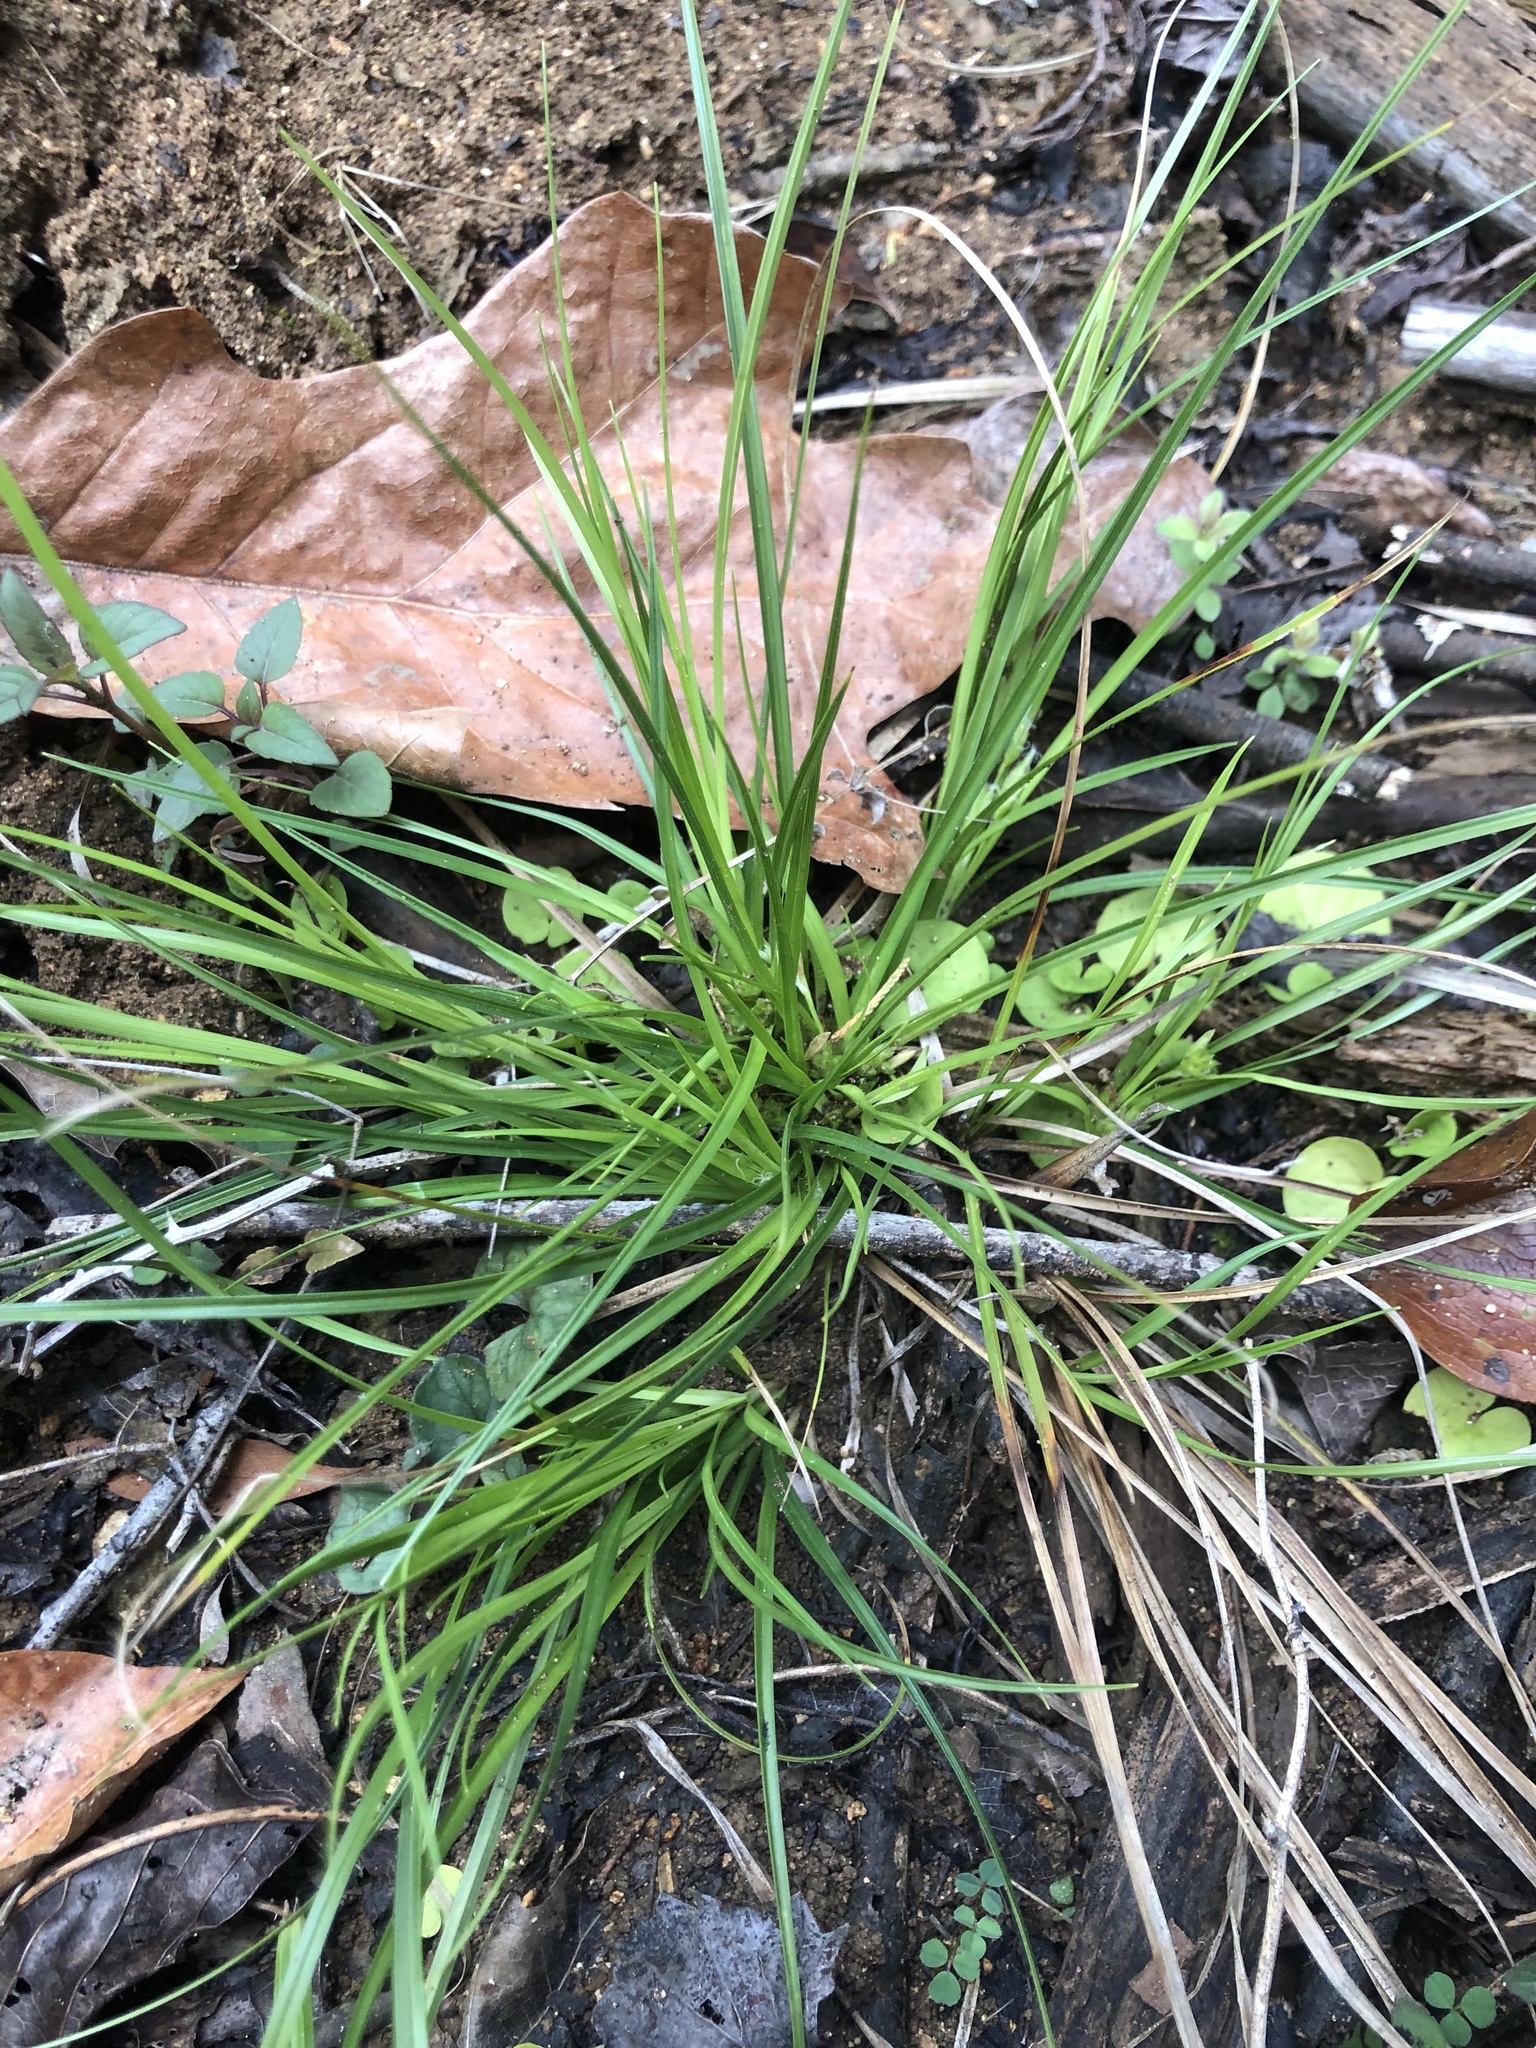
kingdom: Plantae
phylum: Tracheophyta
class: Liliopsida
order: Poales
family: Cyperaceae
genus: Carex
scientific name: Carex umbellata
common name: Early oak sedge
